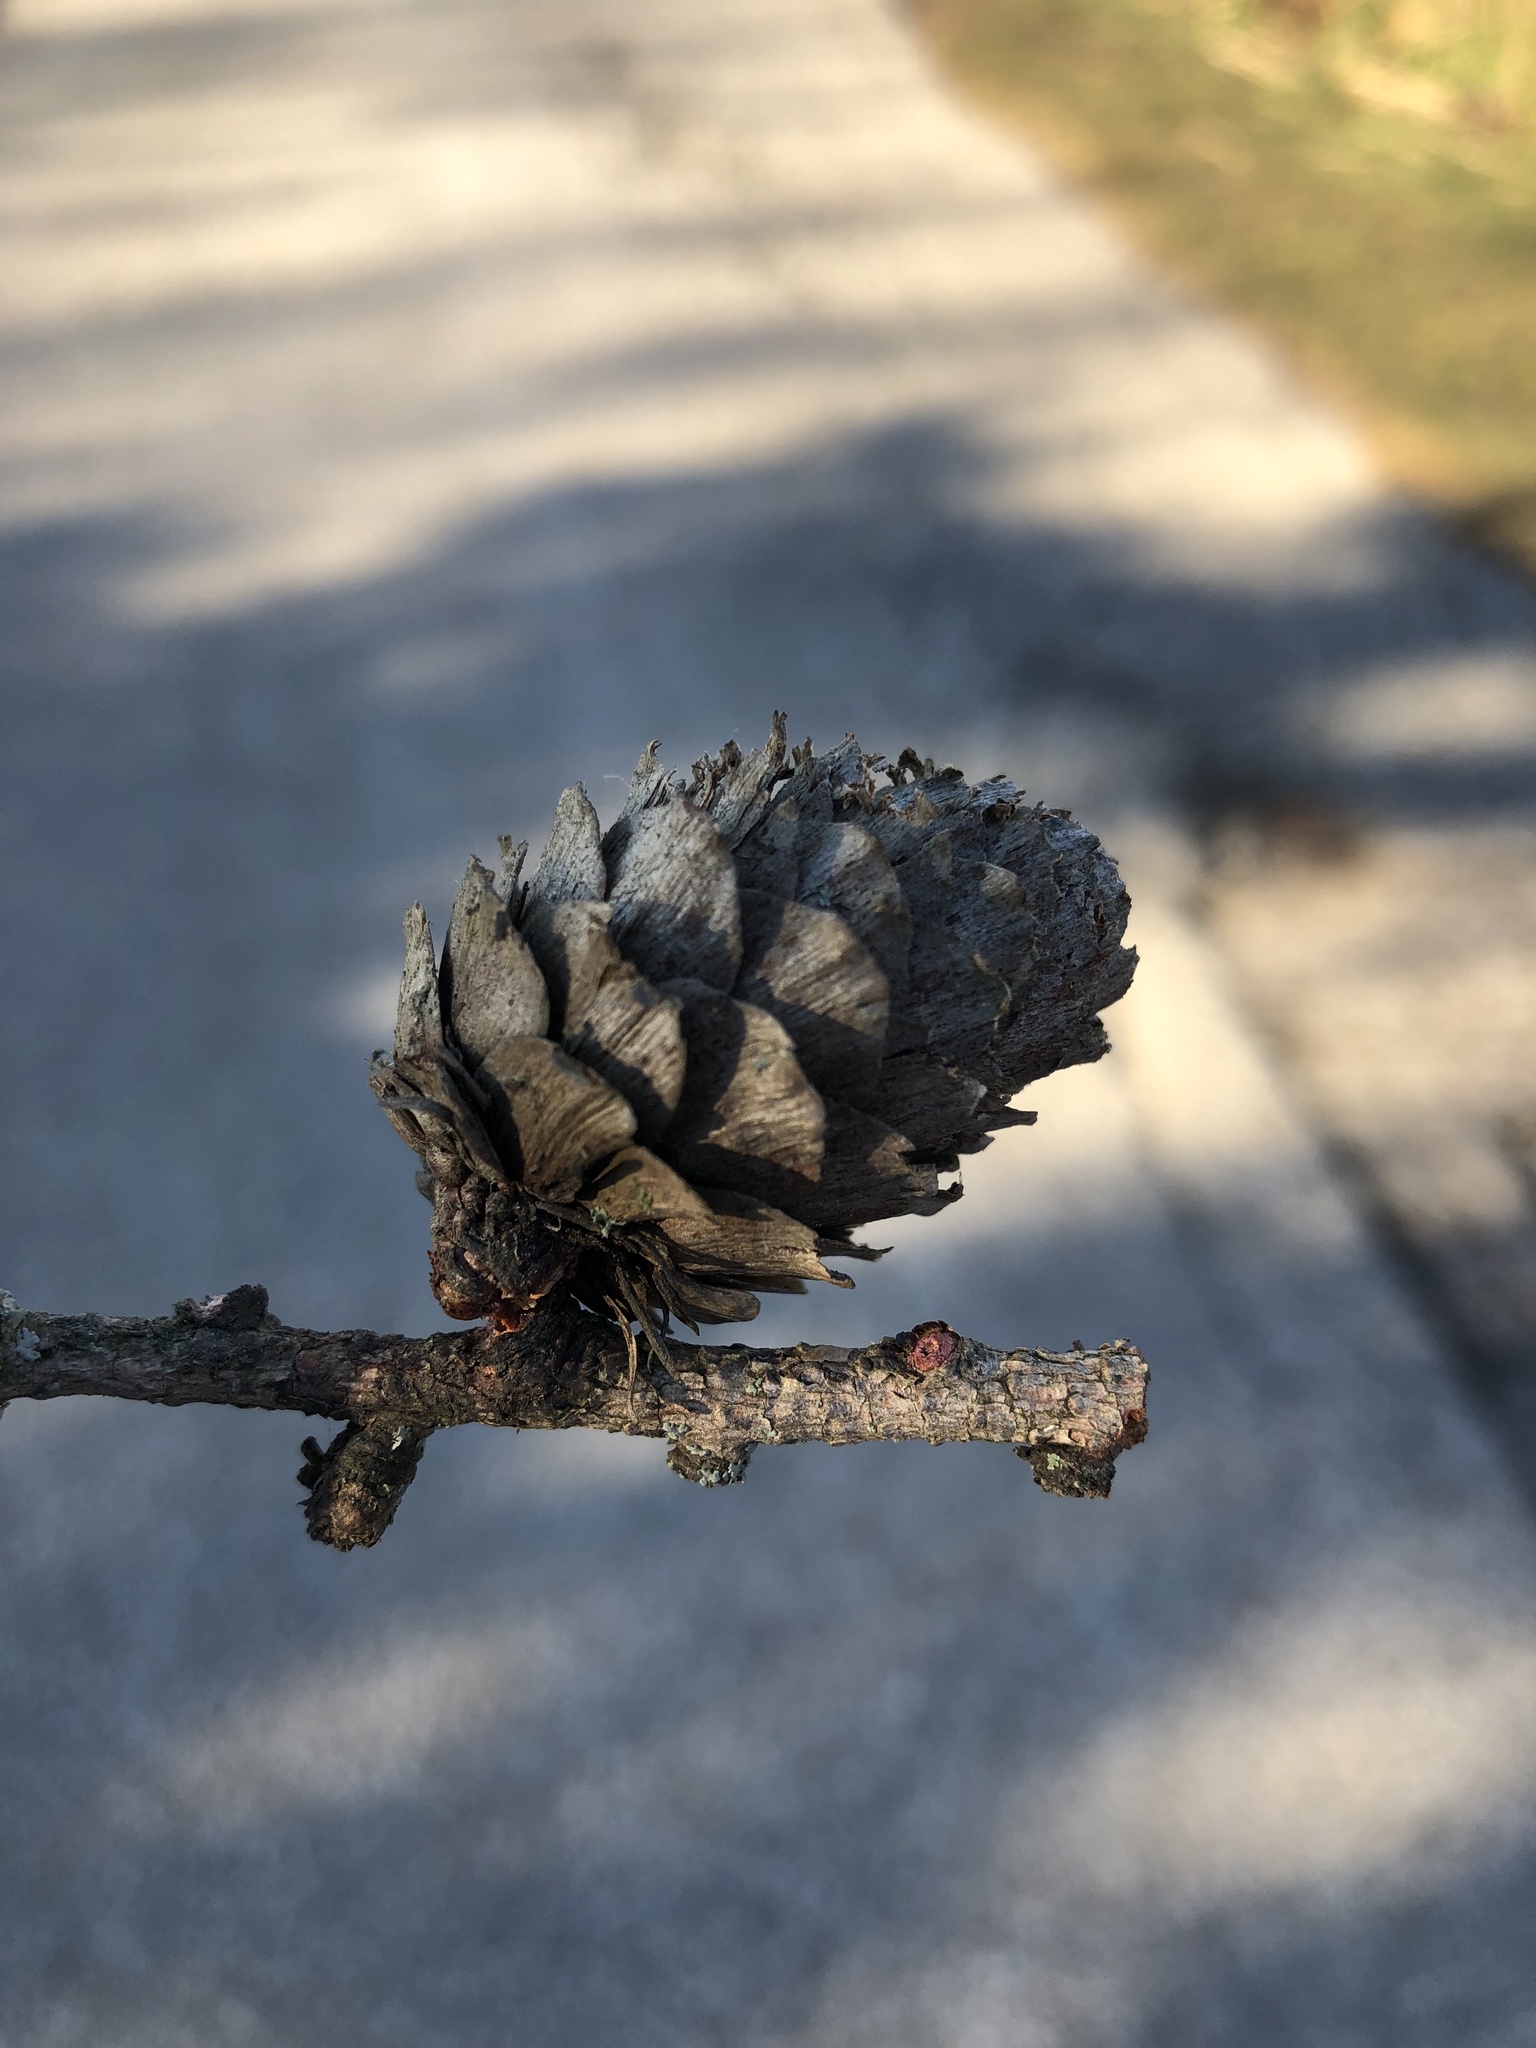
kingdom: Plantae
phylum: Tracheophyta
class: Pinopsida
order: Pinales
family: Pinaceae
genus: Larix
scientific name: Larix decidua
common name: European larch
